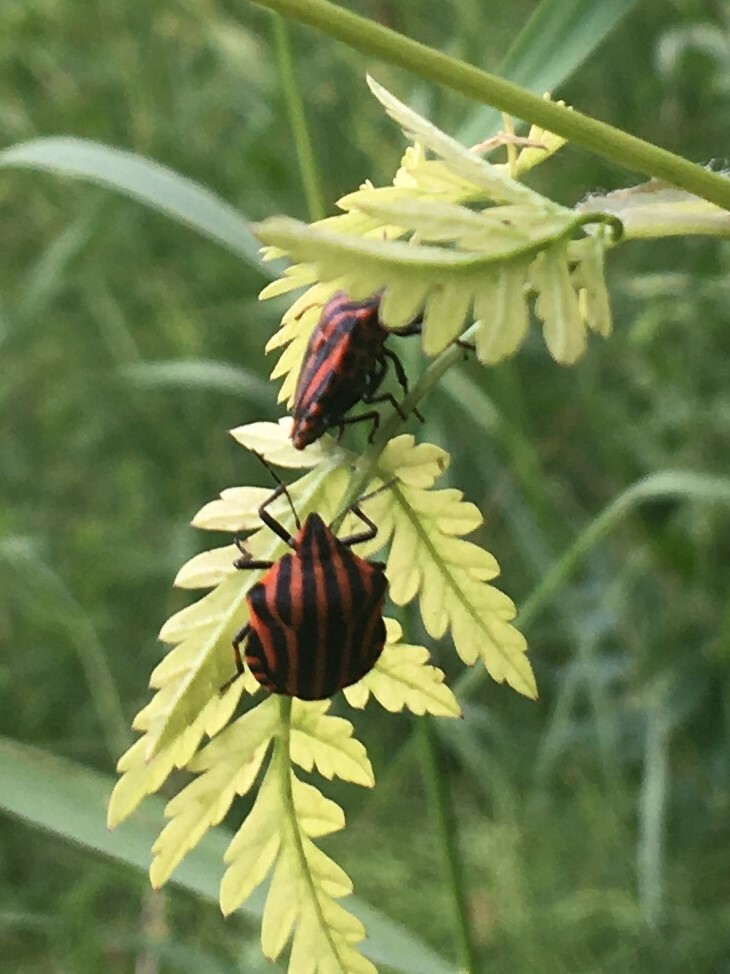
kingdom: Animalia
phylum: Arthropoda
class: Insecta
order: Hemiptera
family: Pentatomidae
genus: Graphosoma
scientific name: Graphosoma italicum
